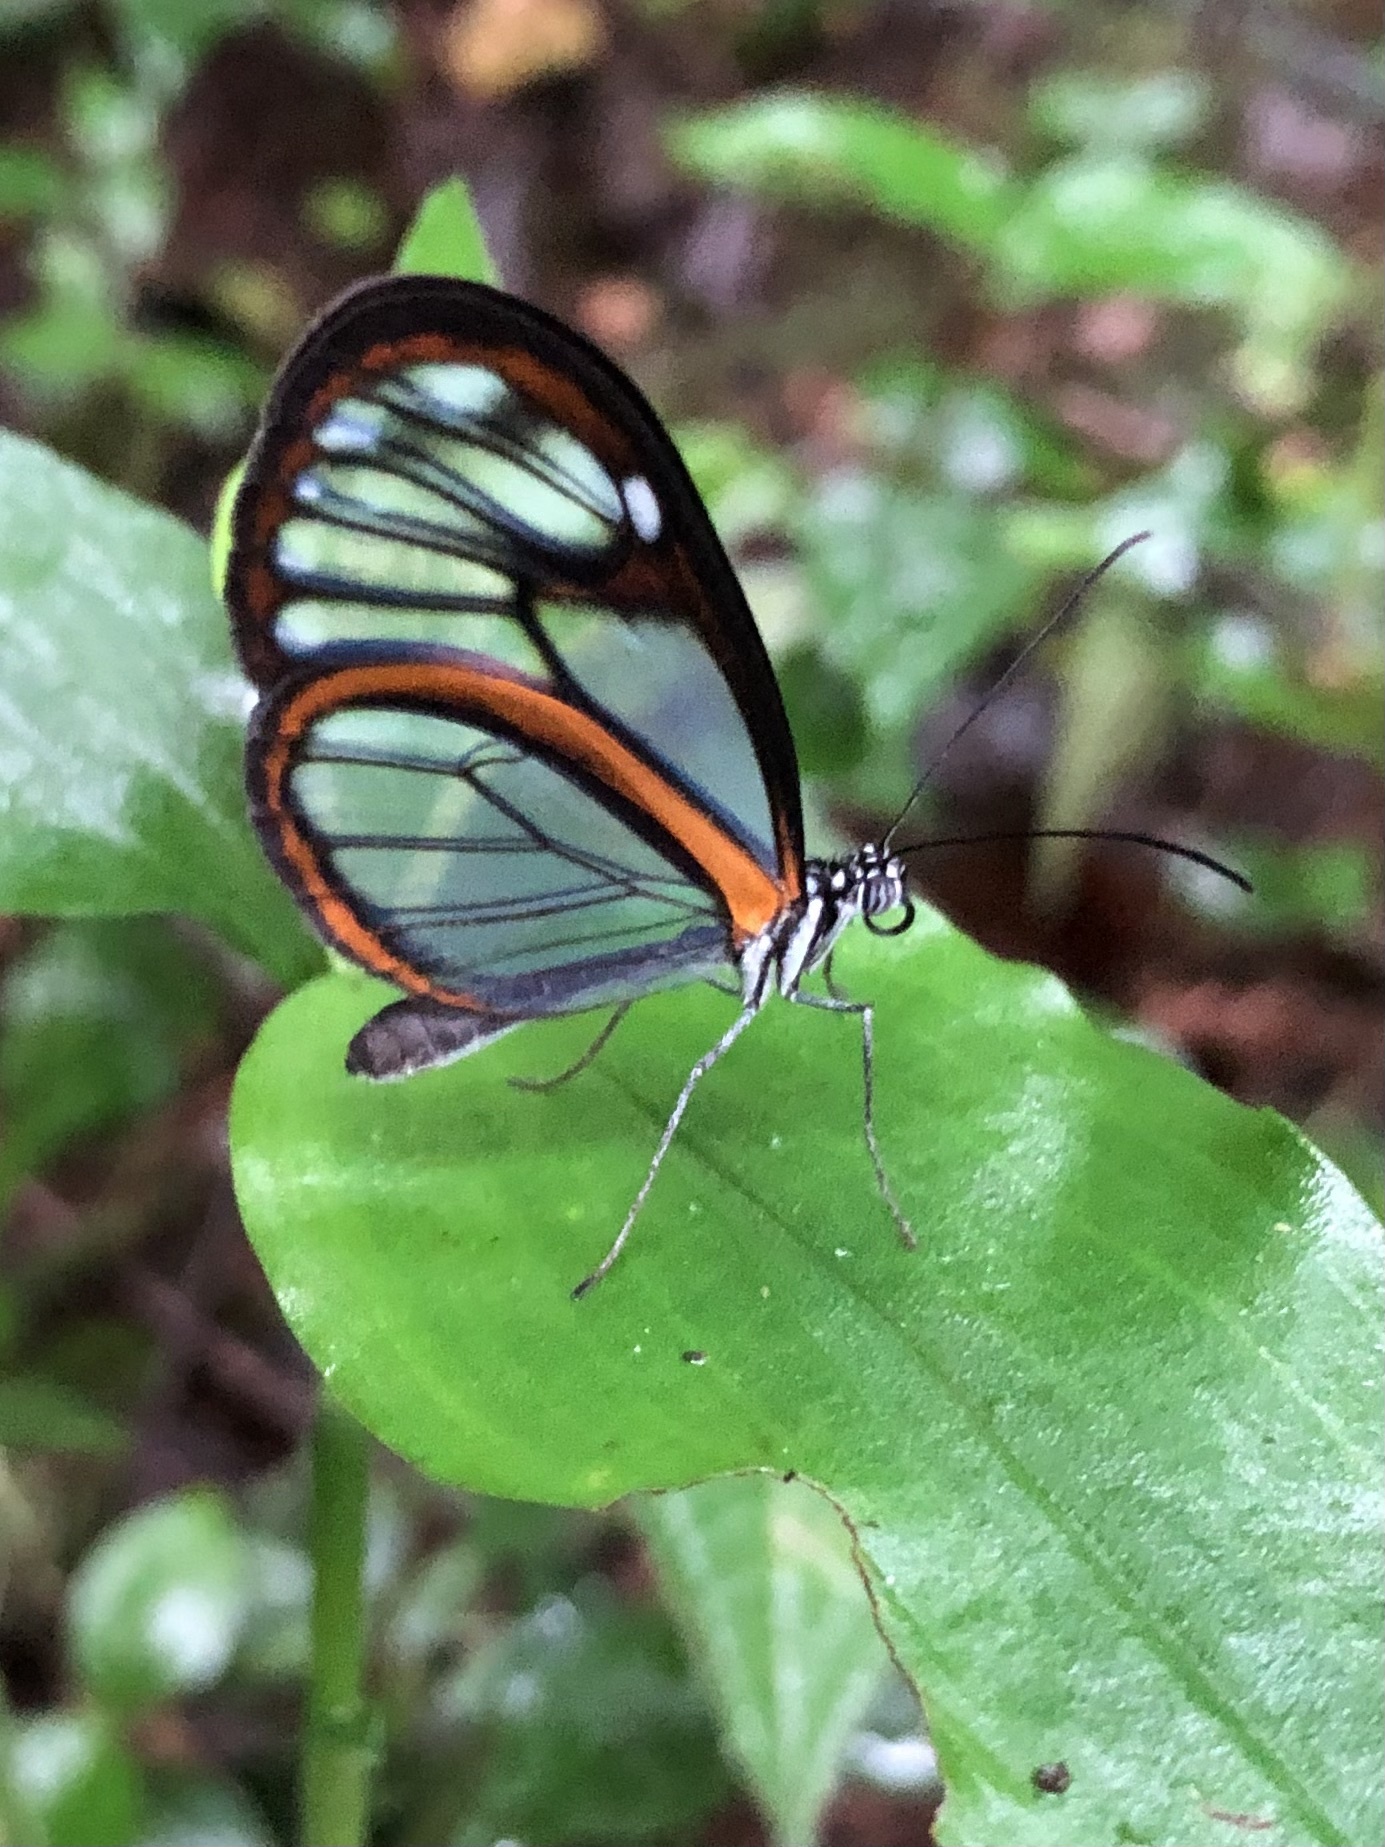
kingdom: Animalia
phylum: Arthropoda
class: Insecta
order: Lepidoptera
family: Nymphalidae
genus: Hypoleria
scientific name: Hypoleria lavinia
